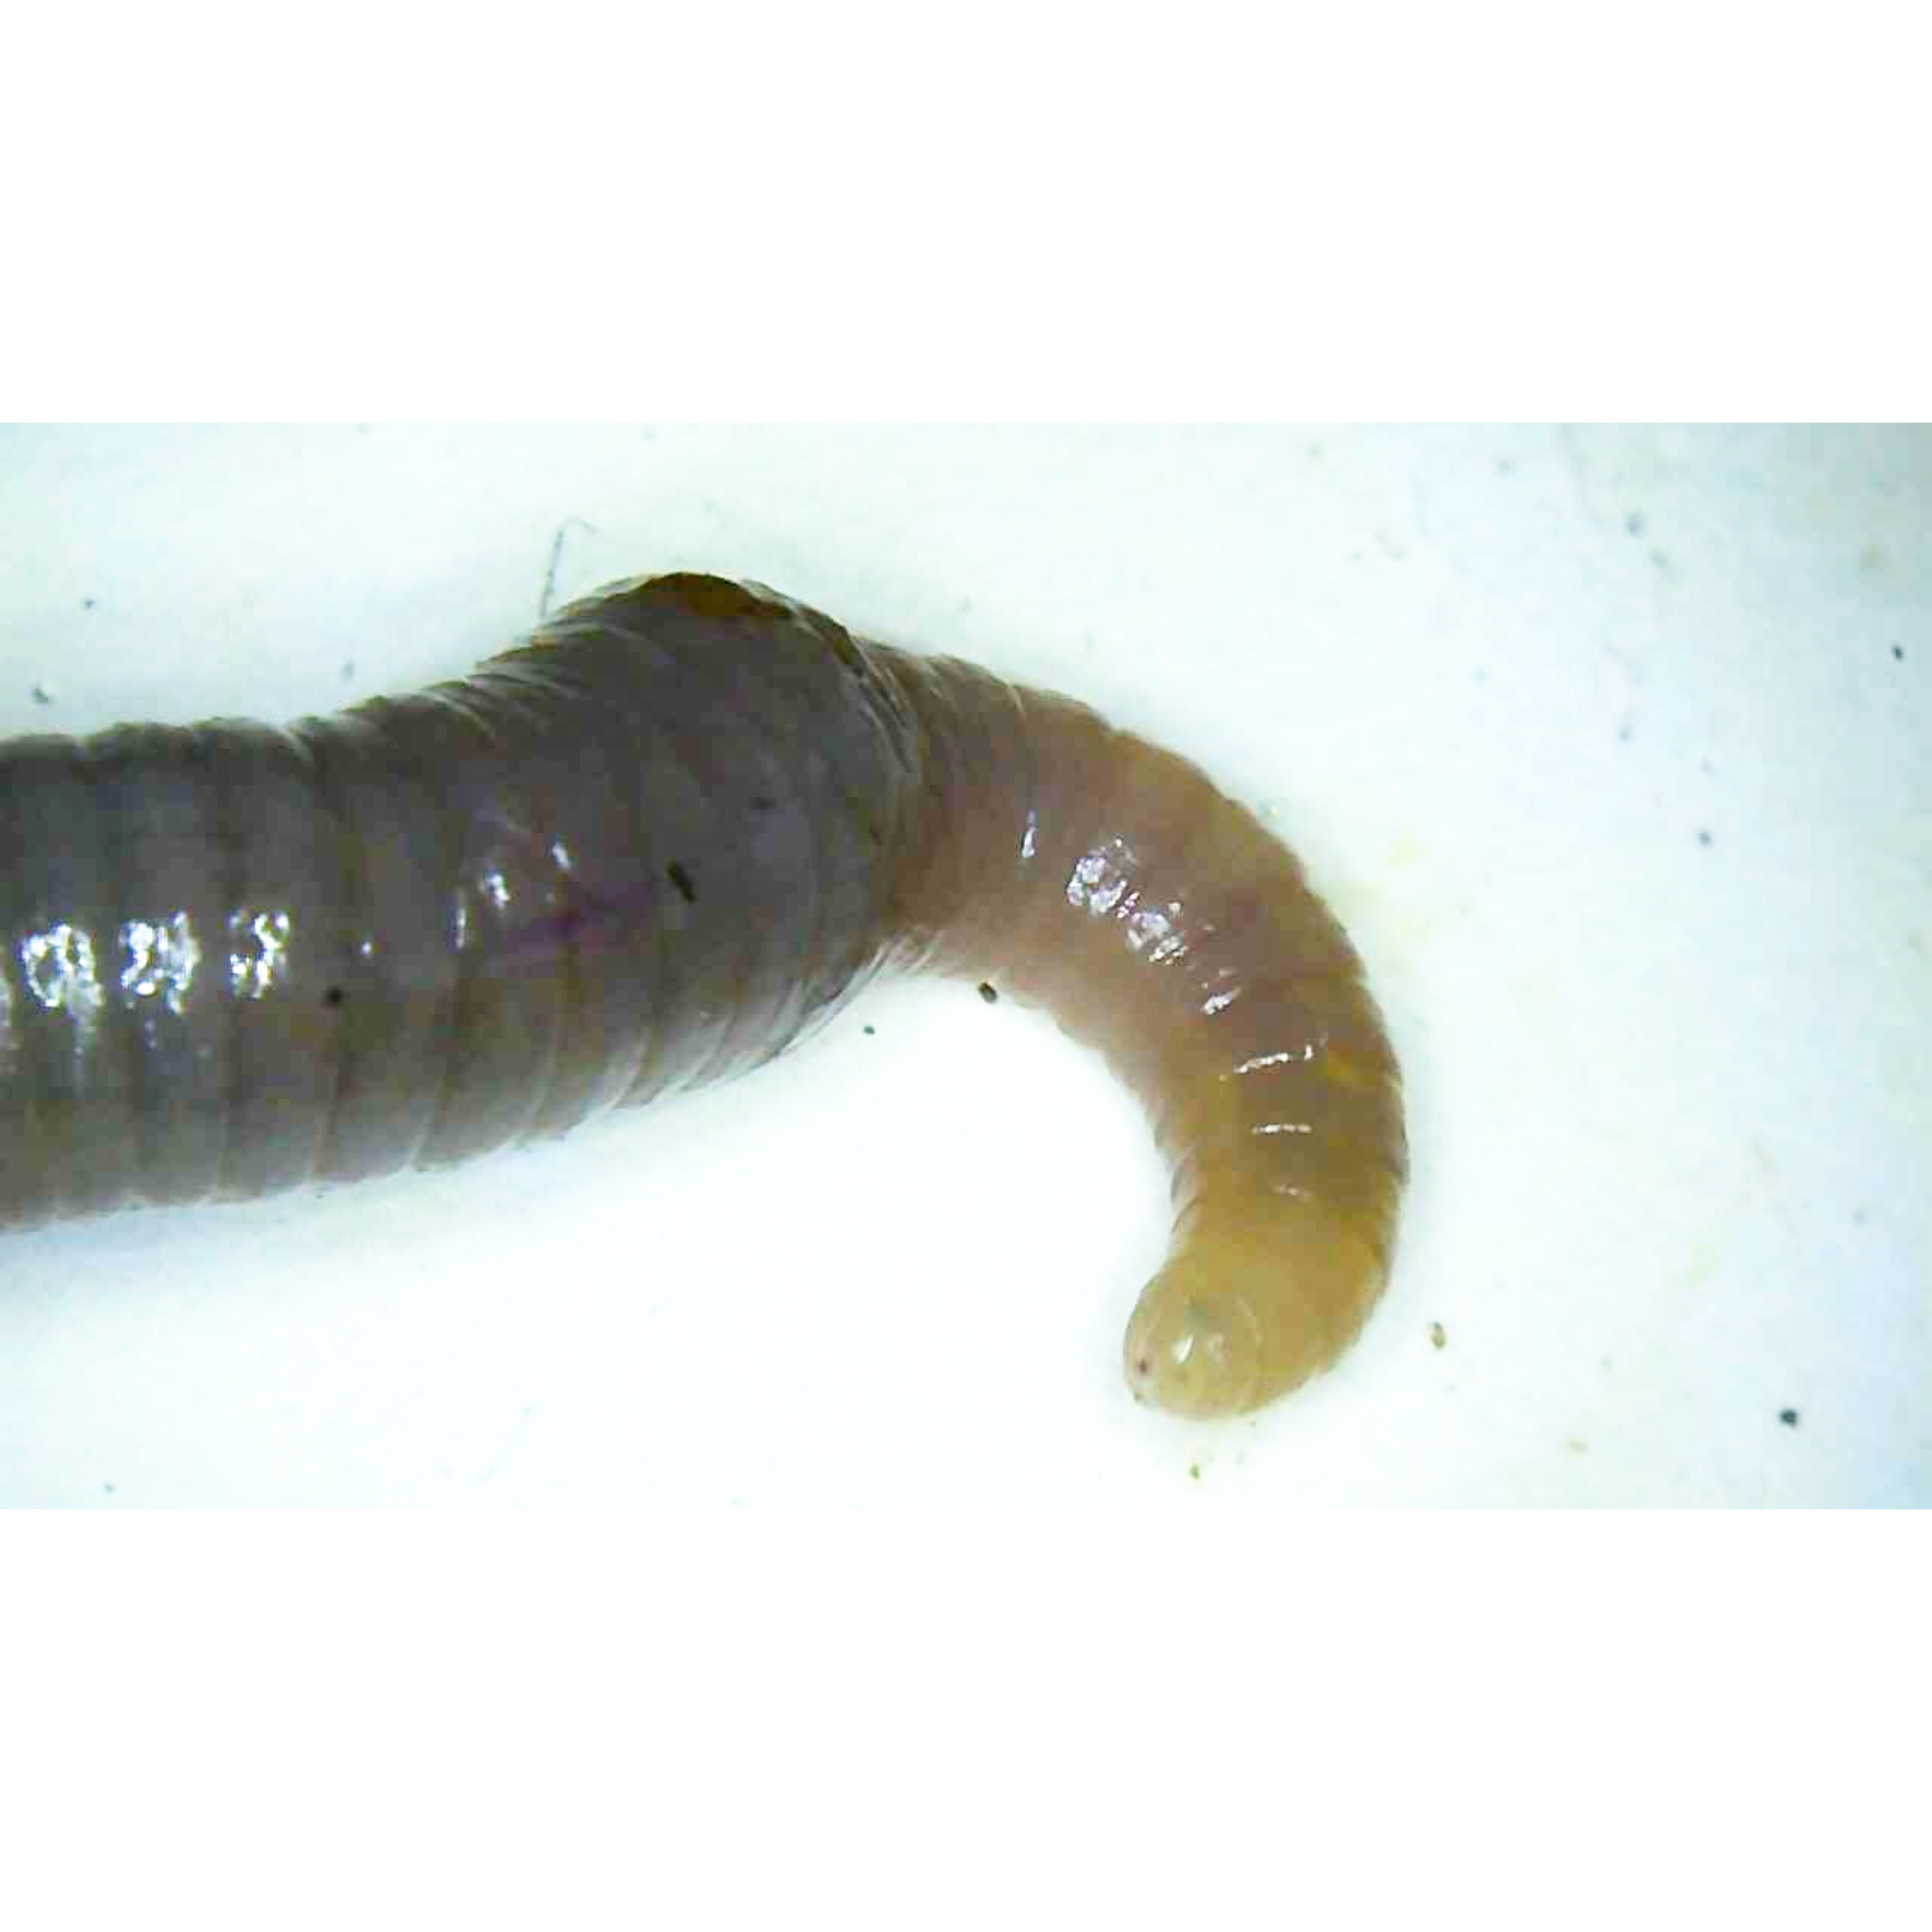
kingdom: Animalia
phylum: Annelida
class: Clitellata
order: Crassiclitellata
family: Lumbricidae
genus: Octolasion
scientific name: Octolasion cyaneum
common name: Woodland blue worm
